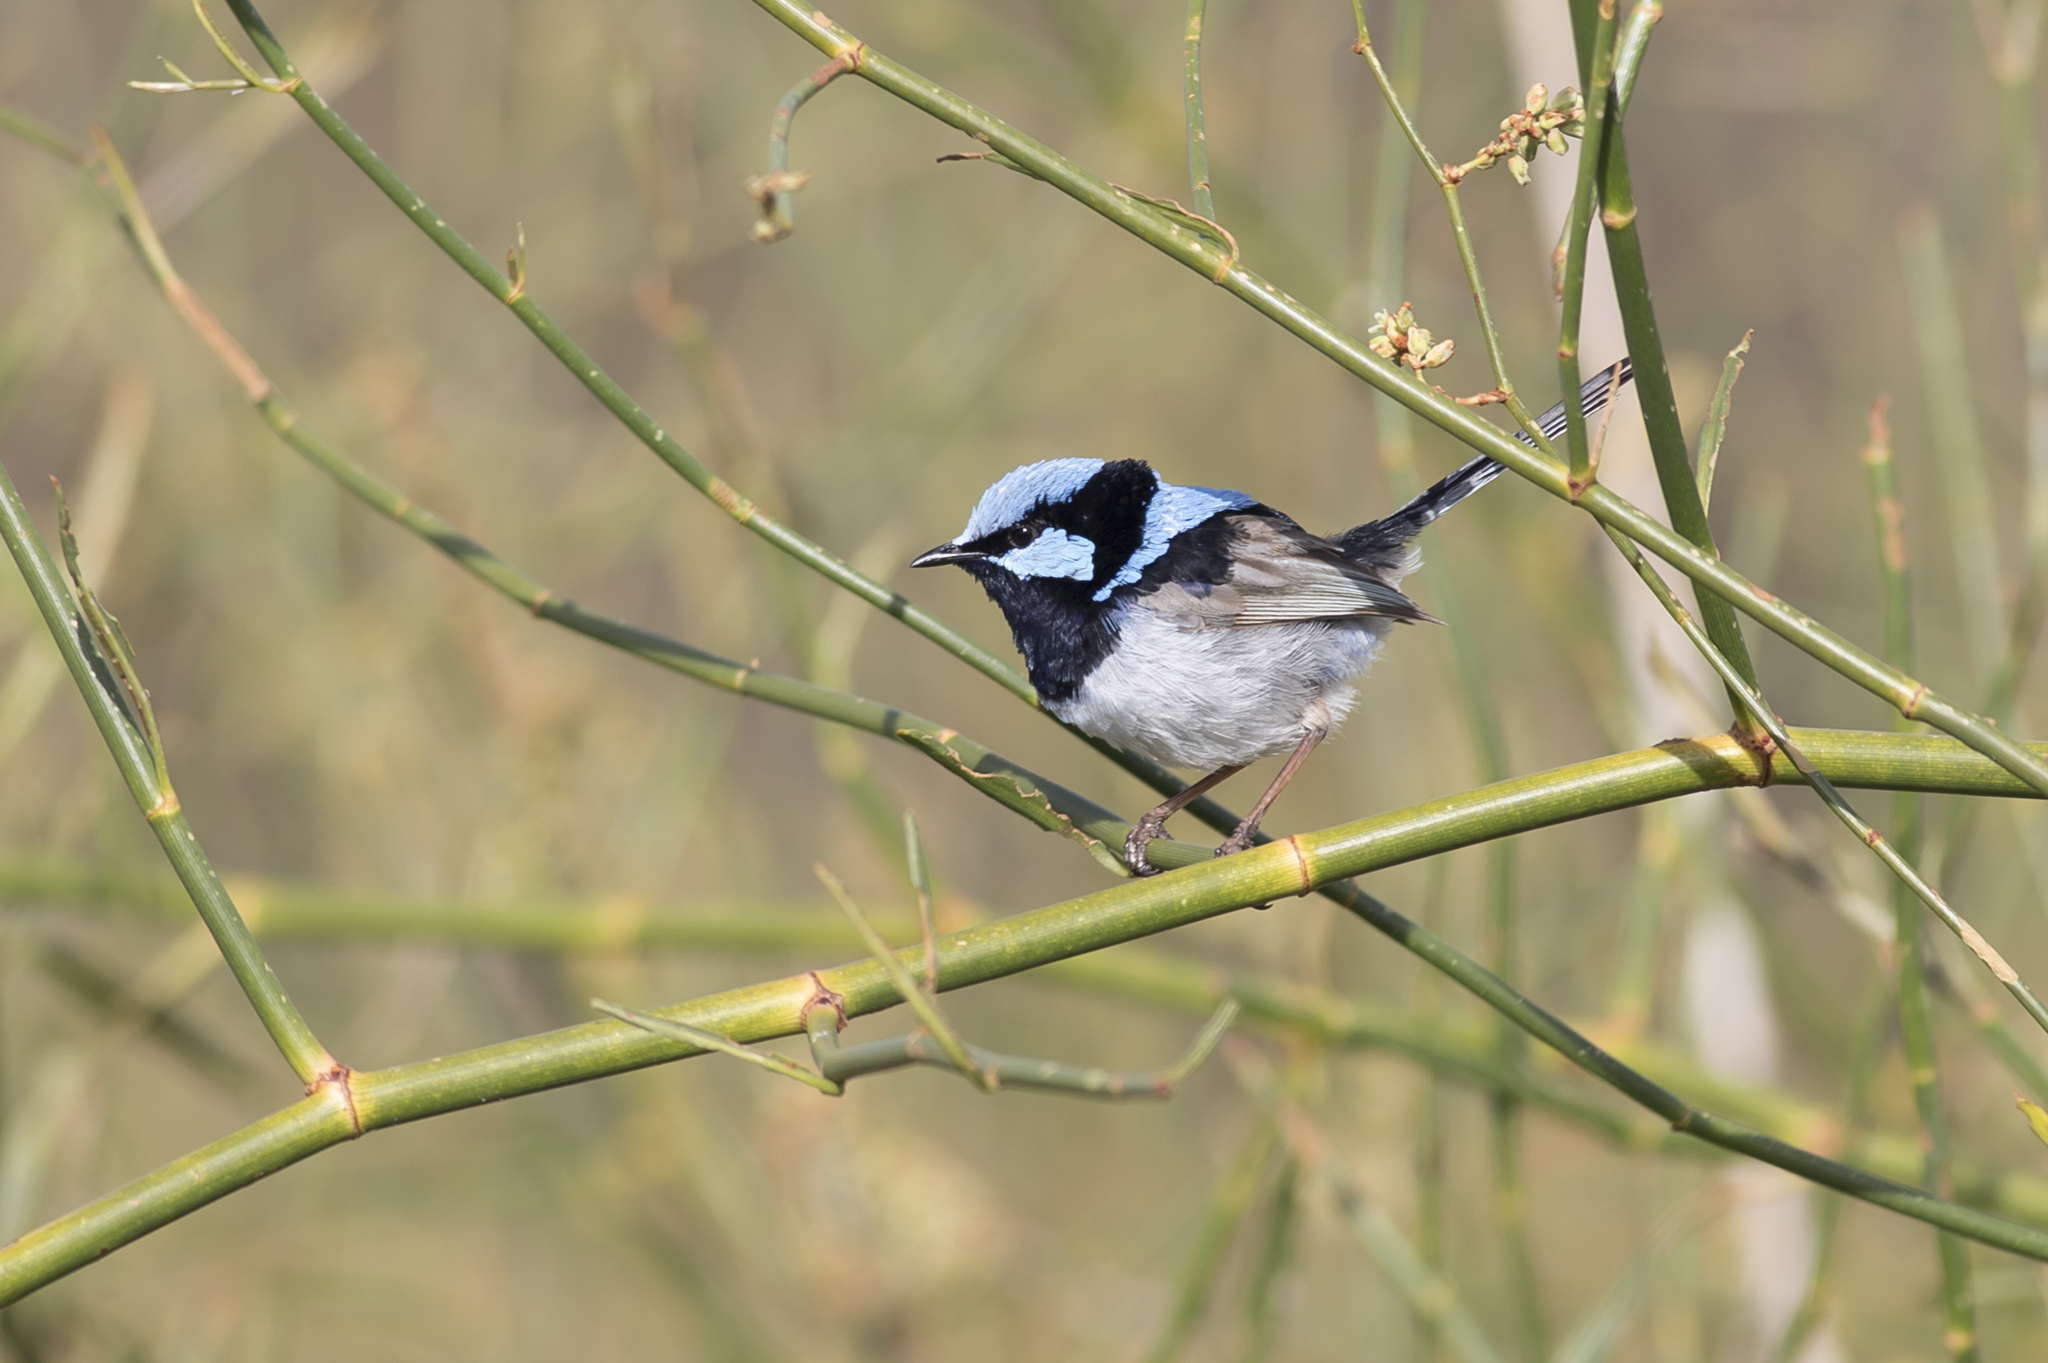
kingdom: Animalia
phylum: Chordata
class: Aves
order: Passeriformes
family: Maluridae
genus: Malurus
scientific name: Malurus cyaneus
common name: Superb fairywren
